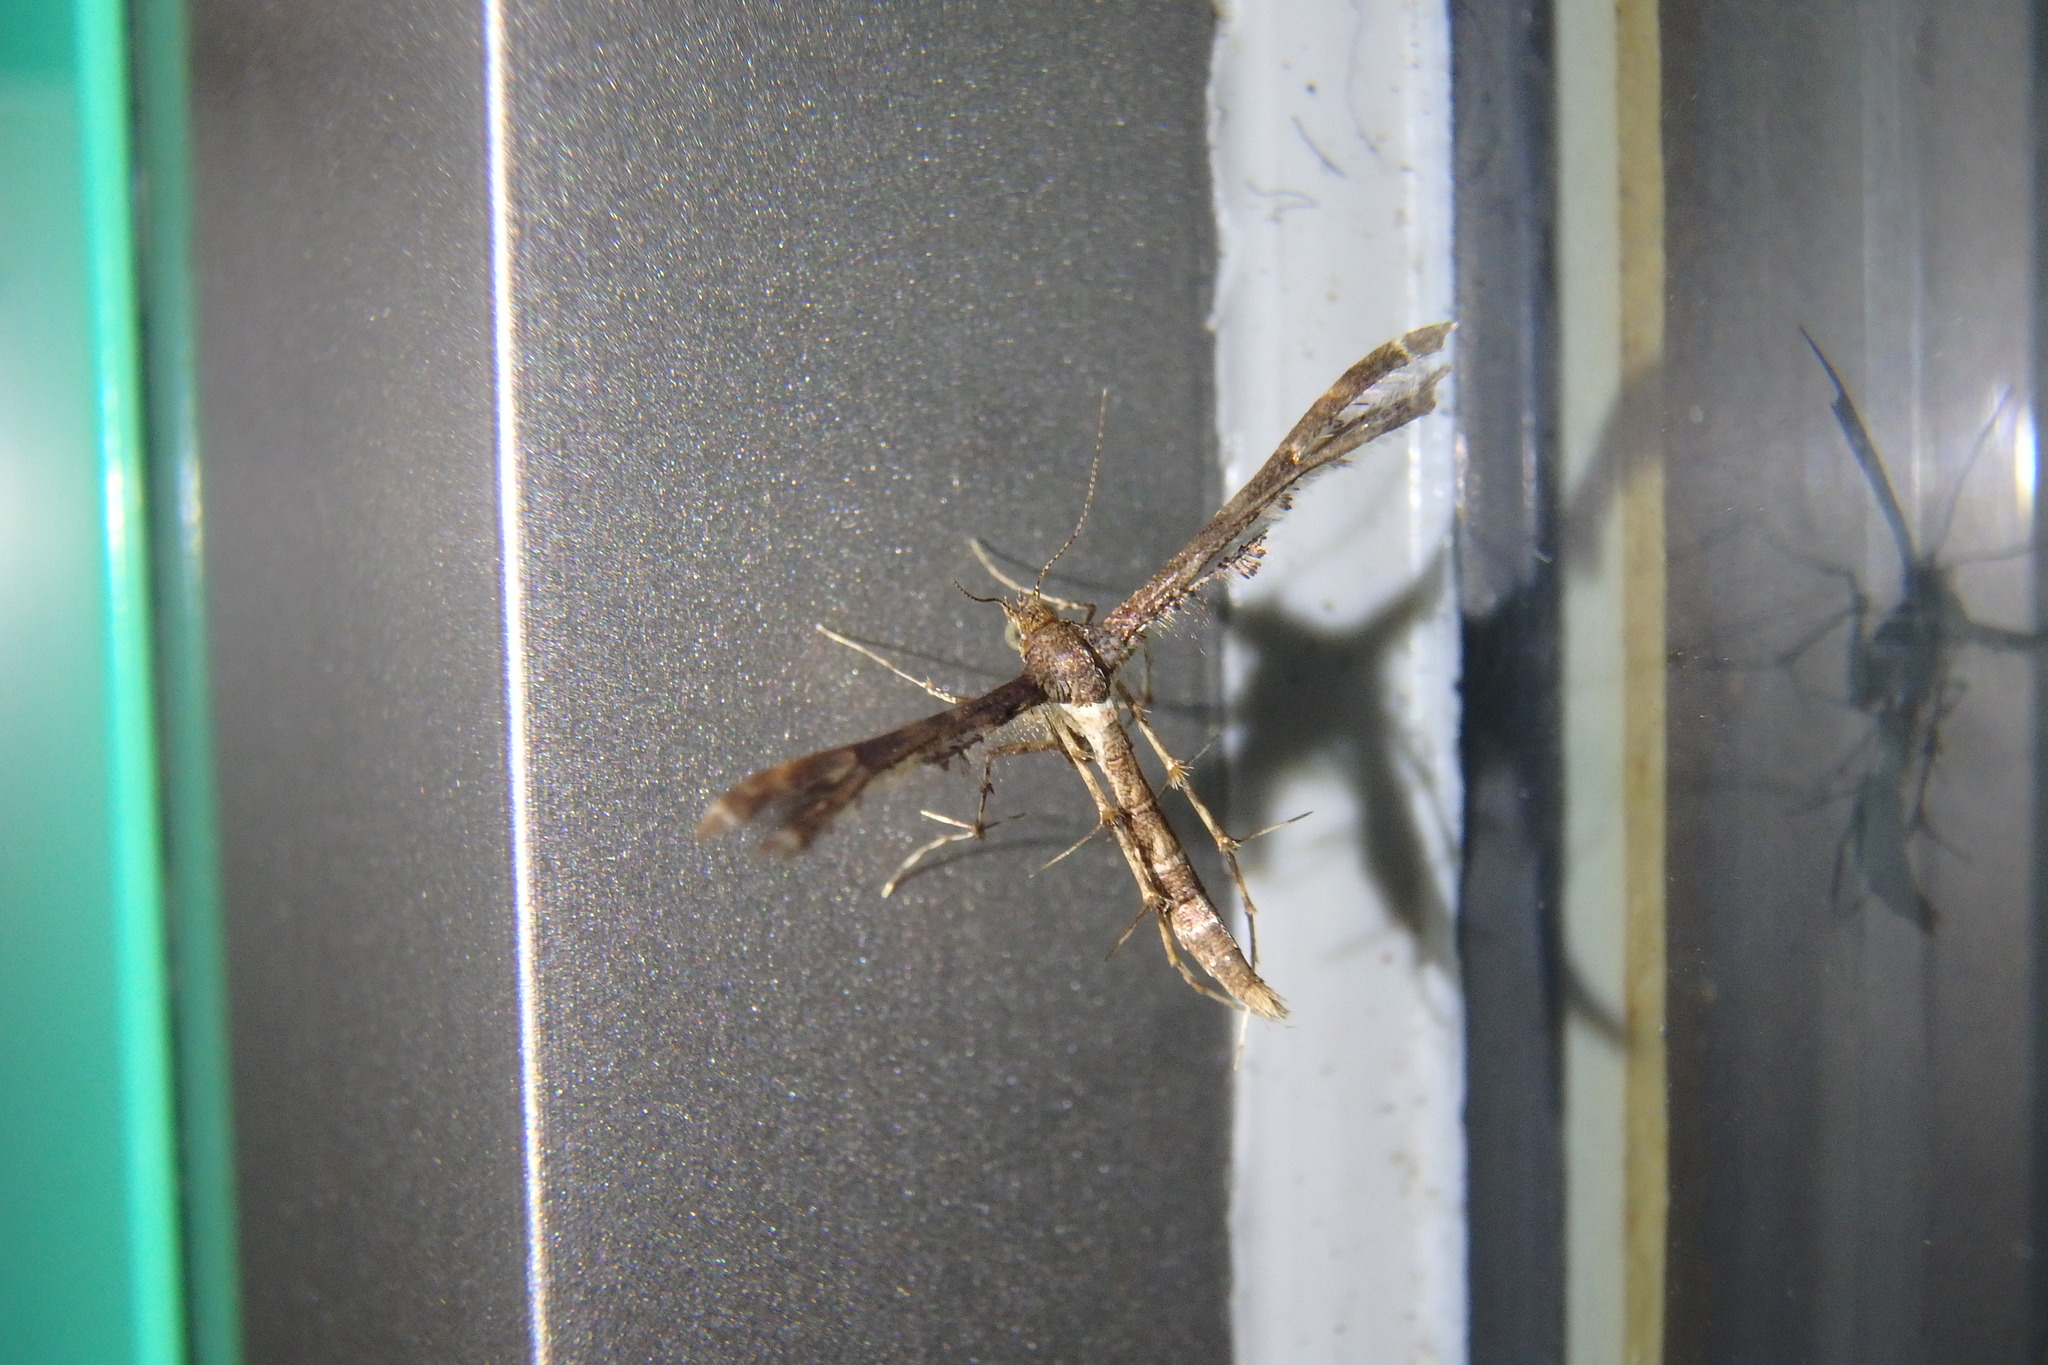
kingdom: Animalia
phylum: Arthropoda
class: Insecta
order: Lepidoptera
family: Pterophoridae
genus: Nippoptilia
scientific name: Nippoptilia vitis
